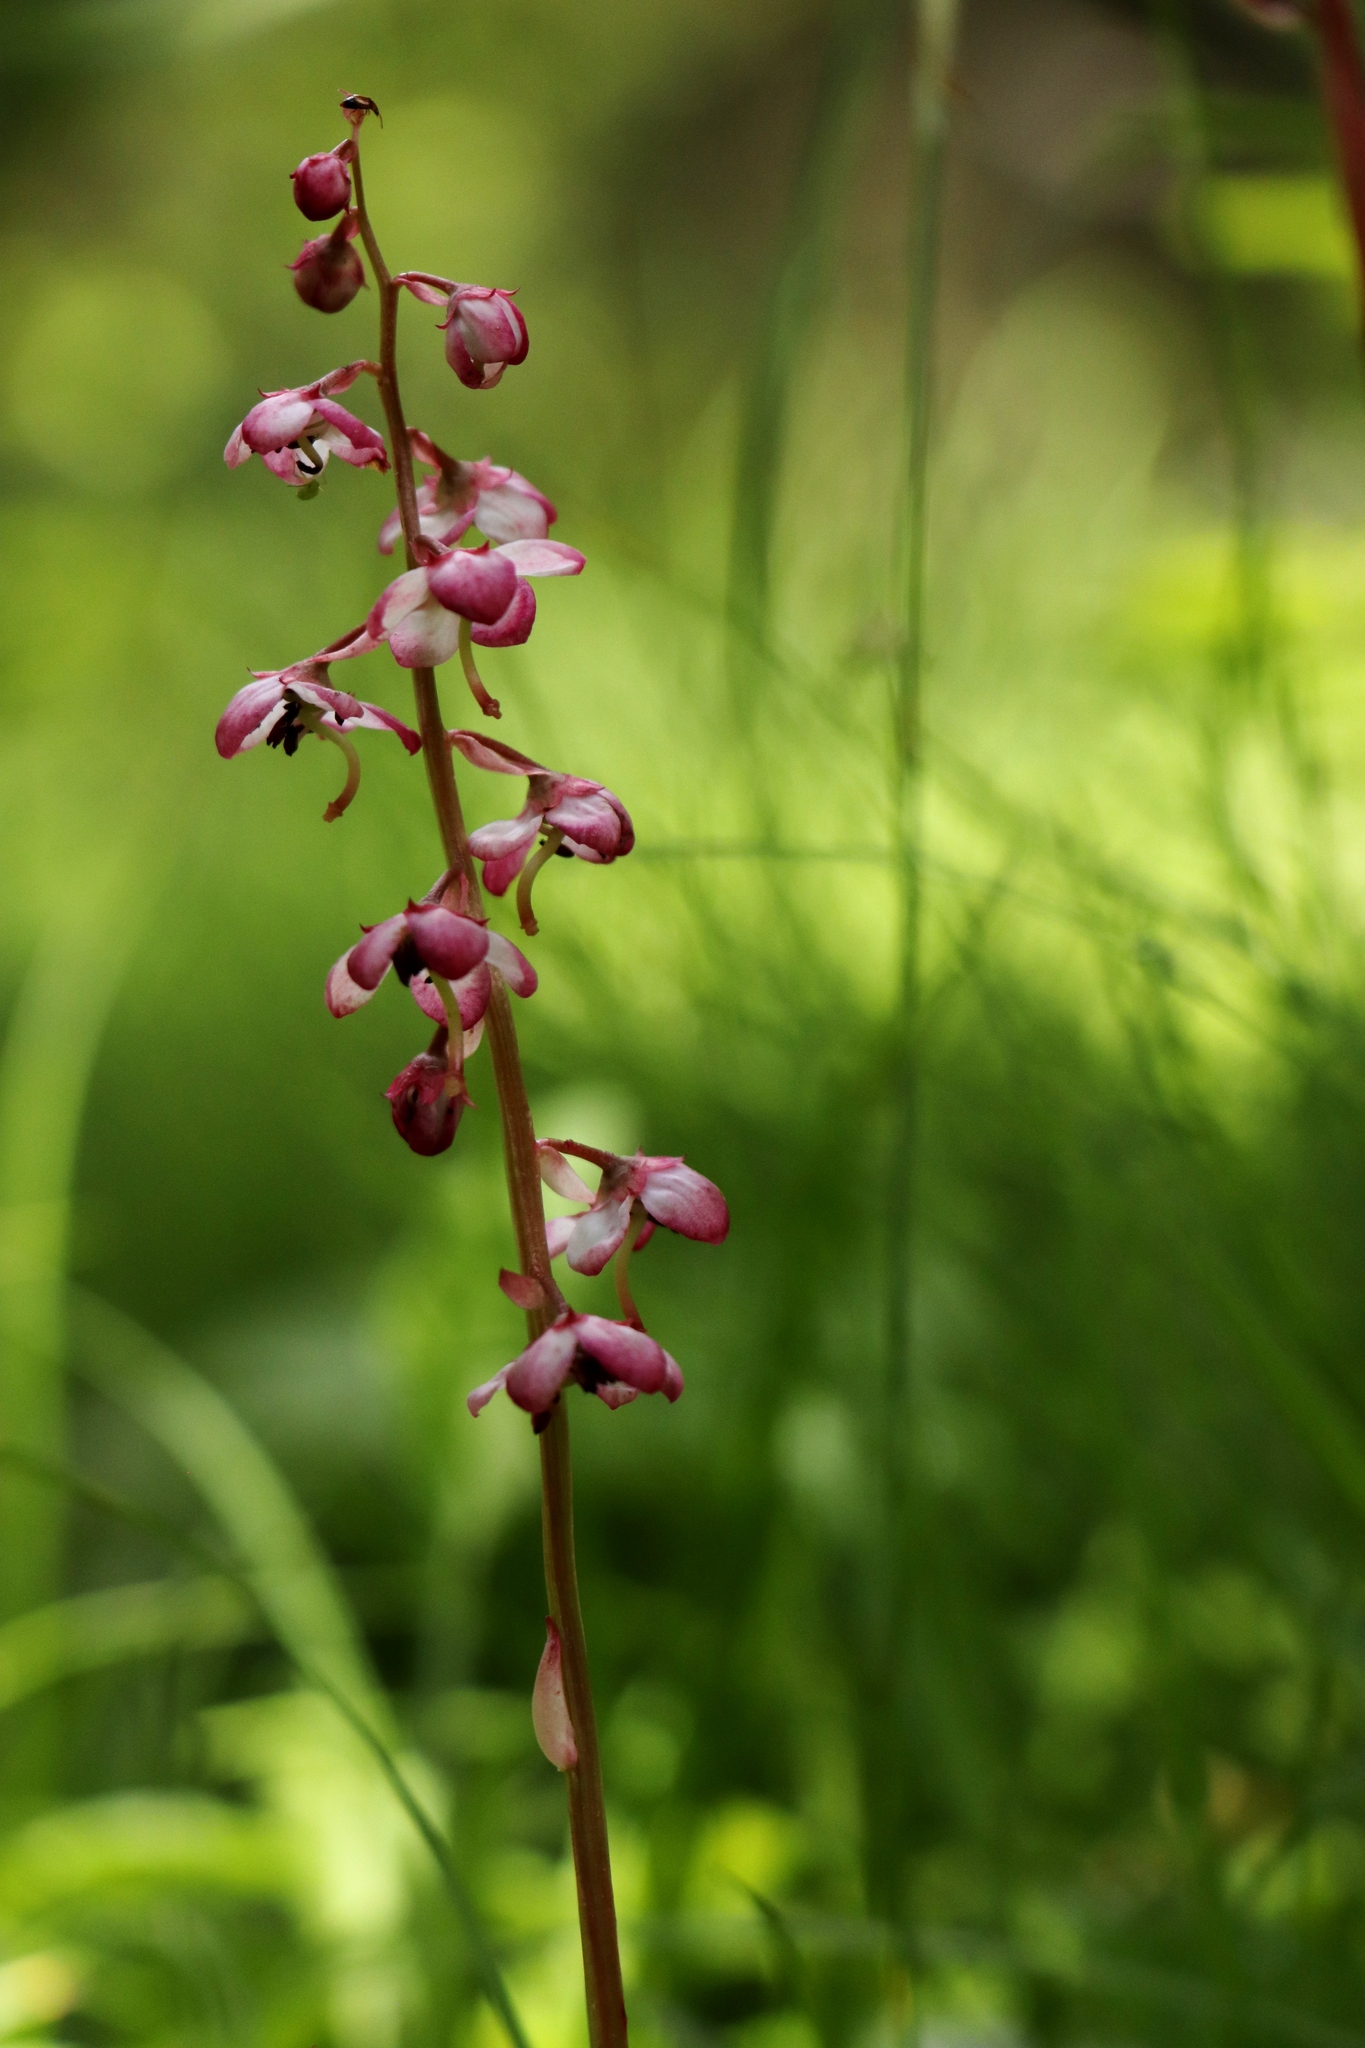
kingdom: Plantae
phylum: Tracheophyta
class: Magnoliopsida
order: Ericales
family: Ericaceae
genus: Pyrola
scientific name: Pyrola asarifolia
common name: Bog wintergreen
